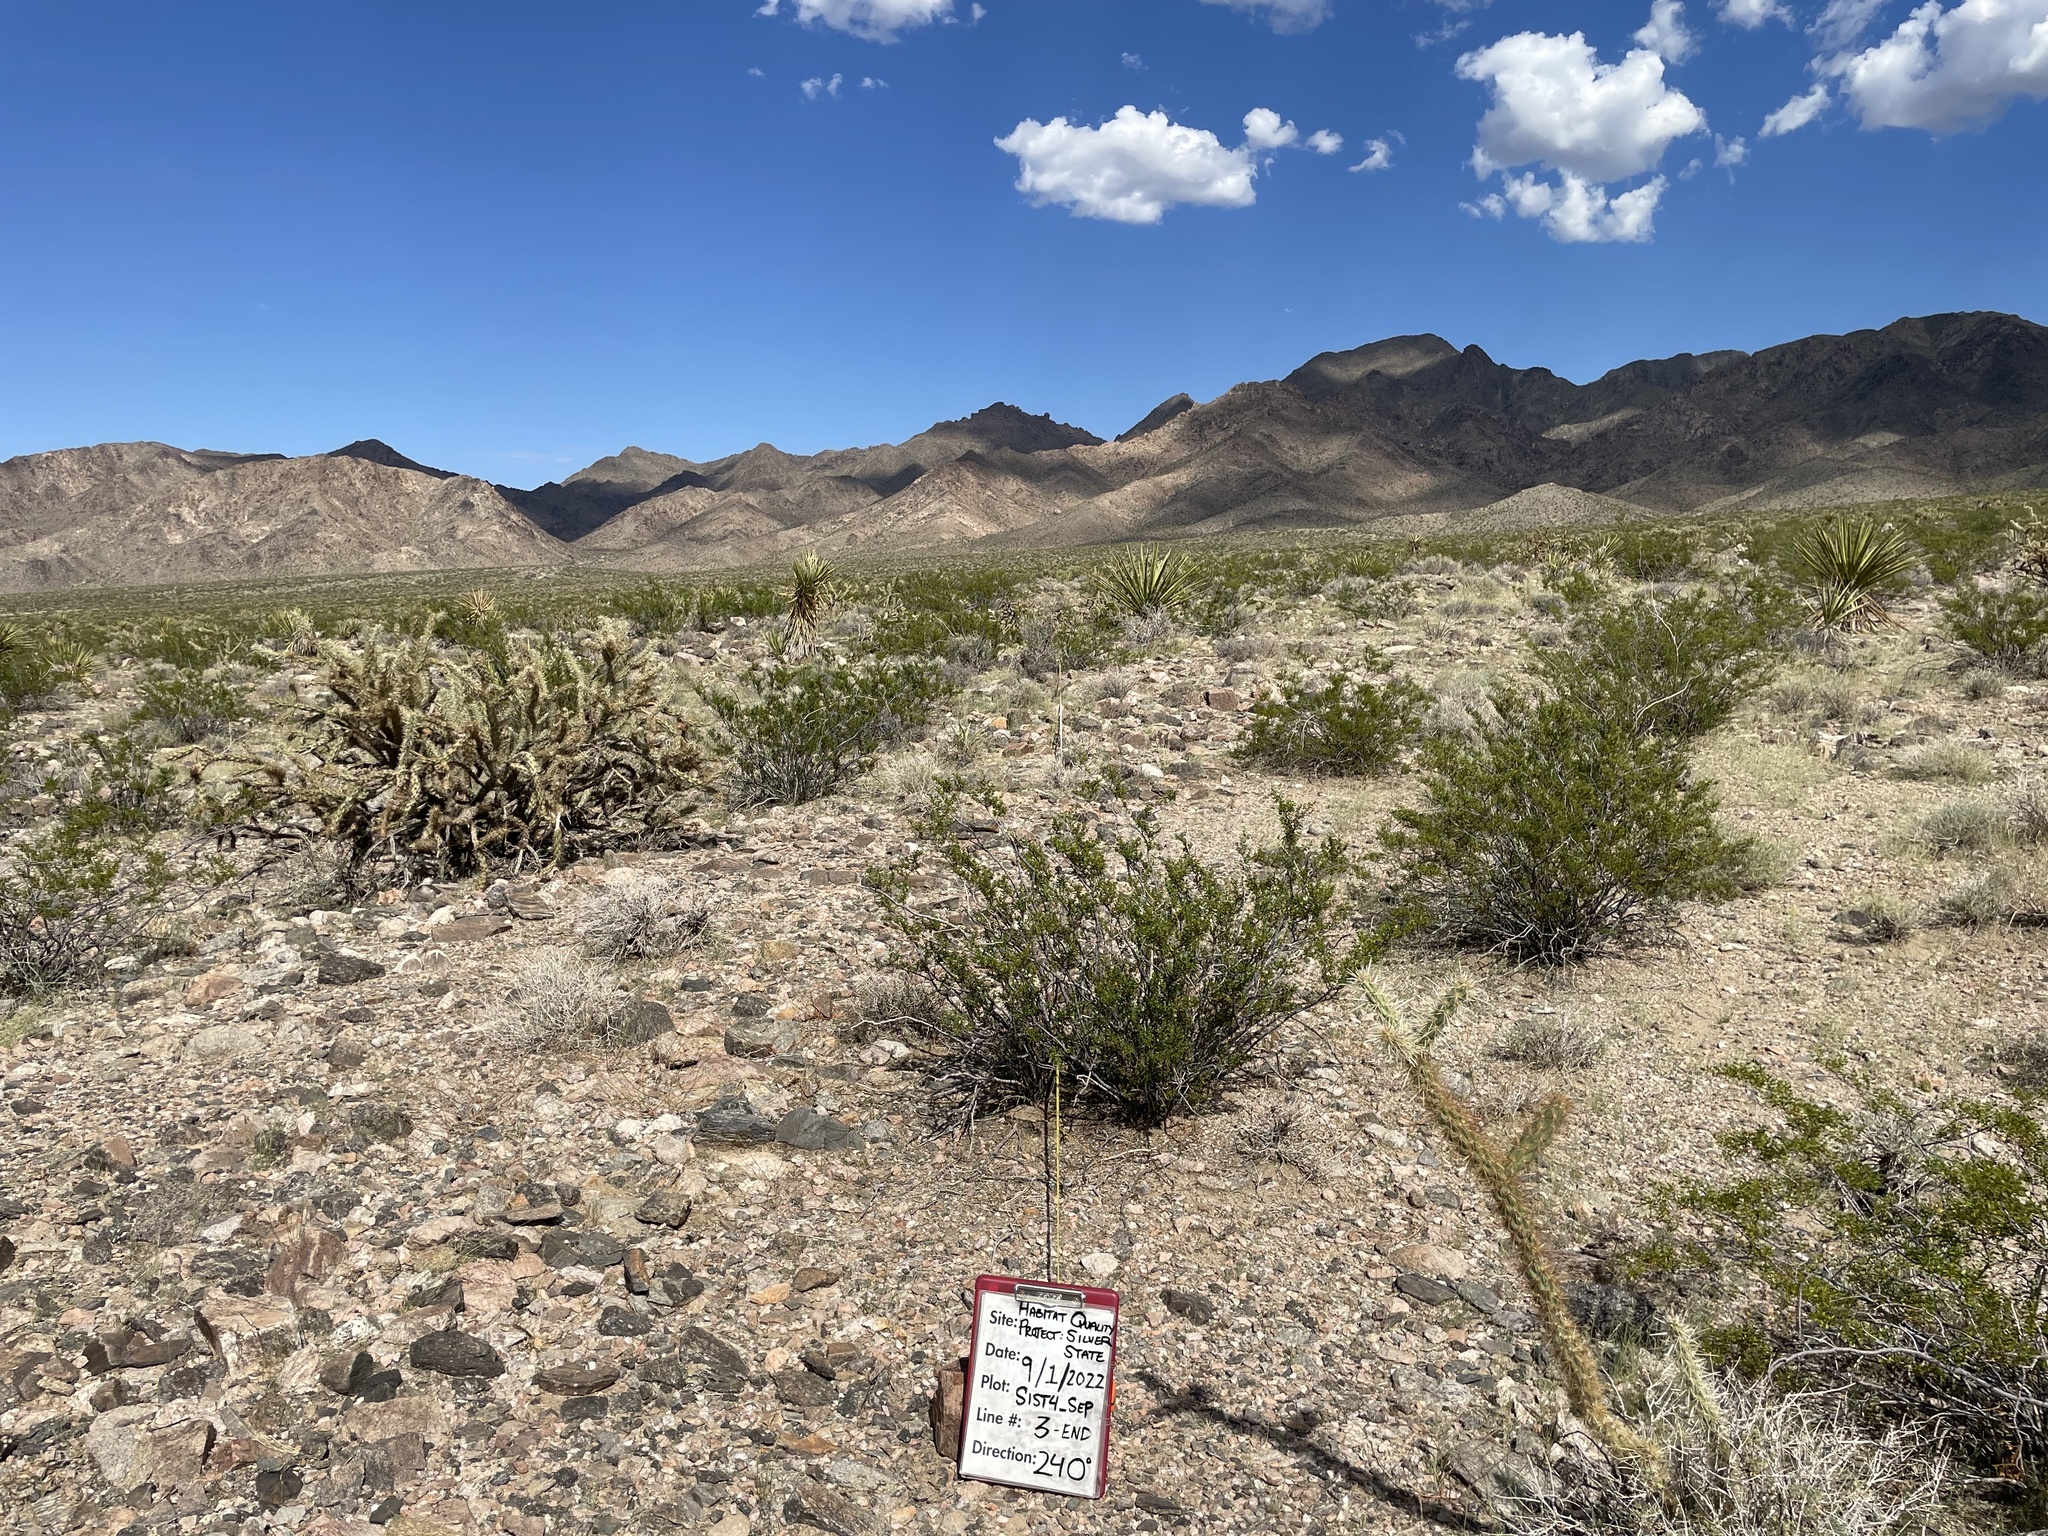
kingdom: Plantae
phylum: Tracheophyta
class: Magnoliopsida
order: Caryophyllales
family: Cactaceae
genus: Cylindropuntia
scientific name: Cylindropuntia acanthocarpa
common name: Buckhorn cholla
